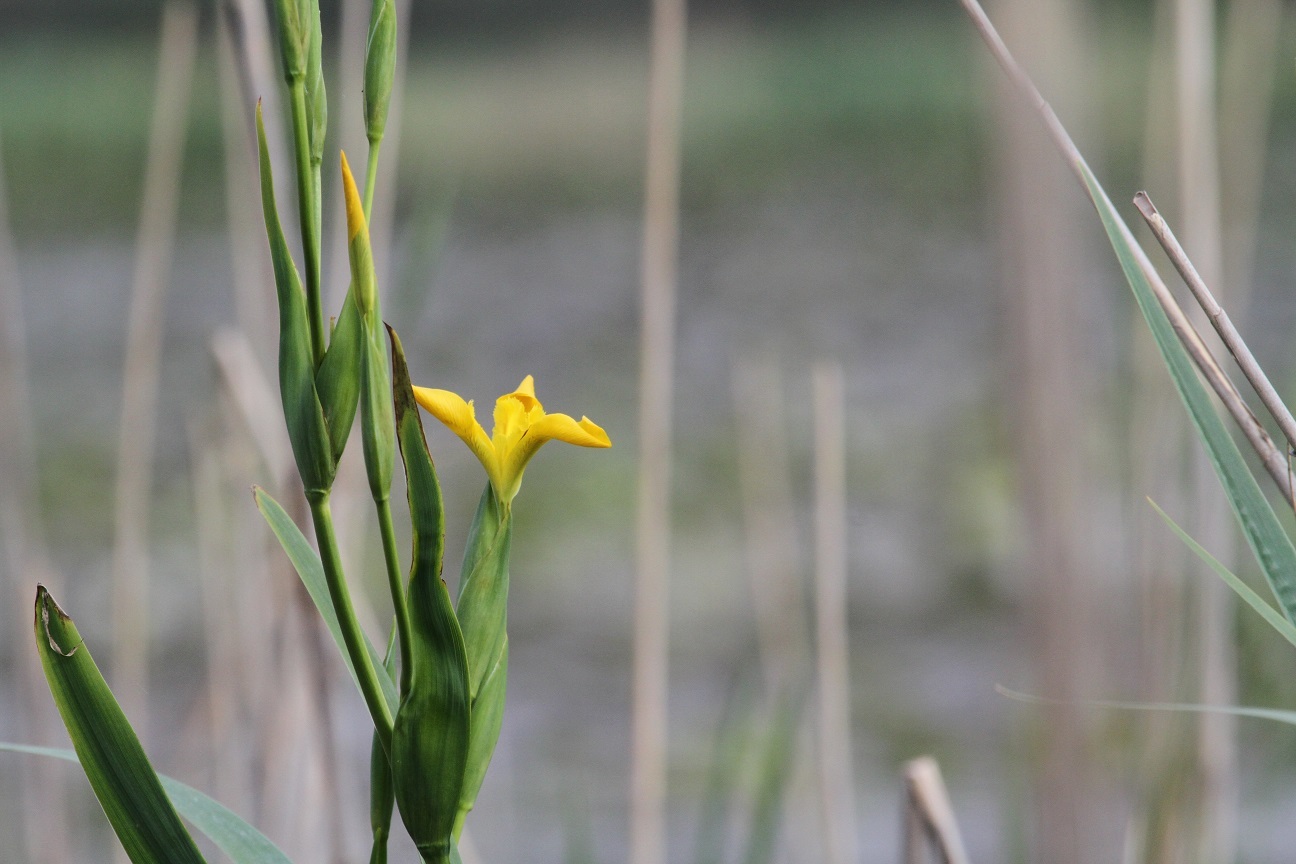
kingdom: Plantae
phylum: Tracheophyta
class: Liliopsida
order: Asparagales
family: Iridaceae
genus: Iris
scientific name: Iris pseudacorus
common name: Yellow flag
